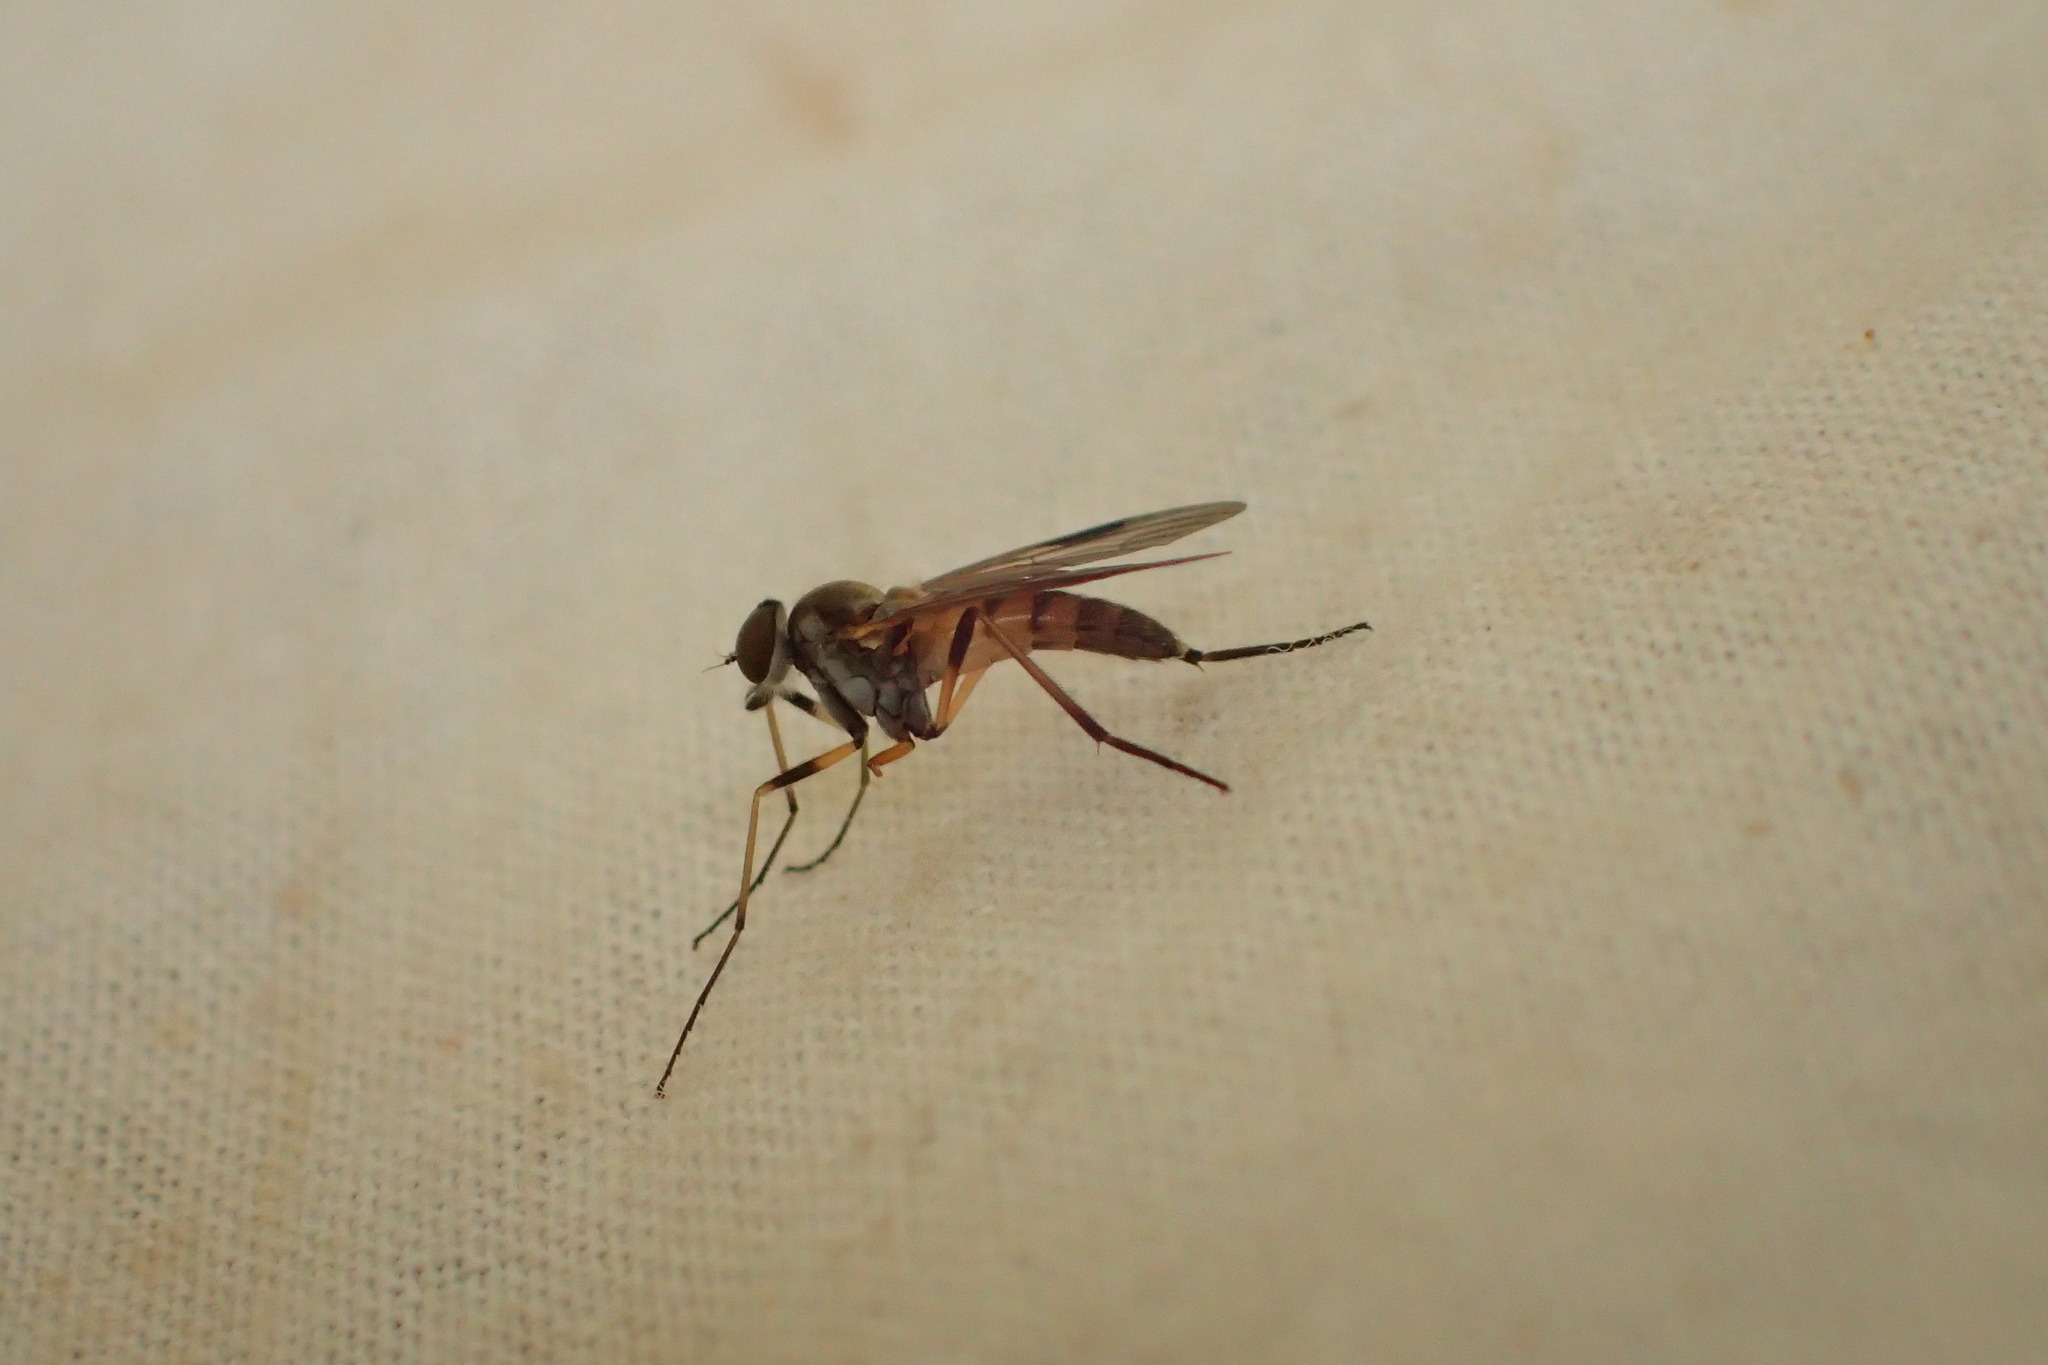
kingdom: Animalia
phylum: Arthropoda
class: Insecta
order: Diptera
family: Rhagionidae
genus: Rhagio
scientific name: Rhagio lineola
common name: Small fleck-winged snipefly
